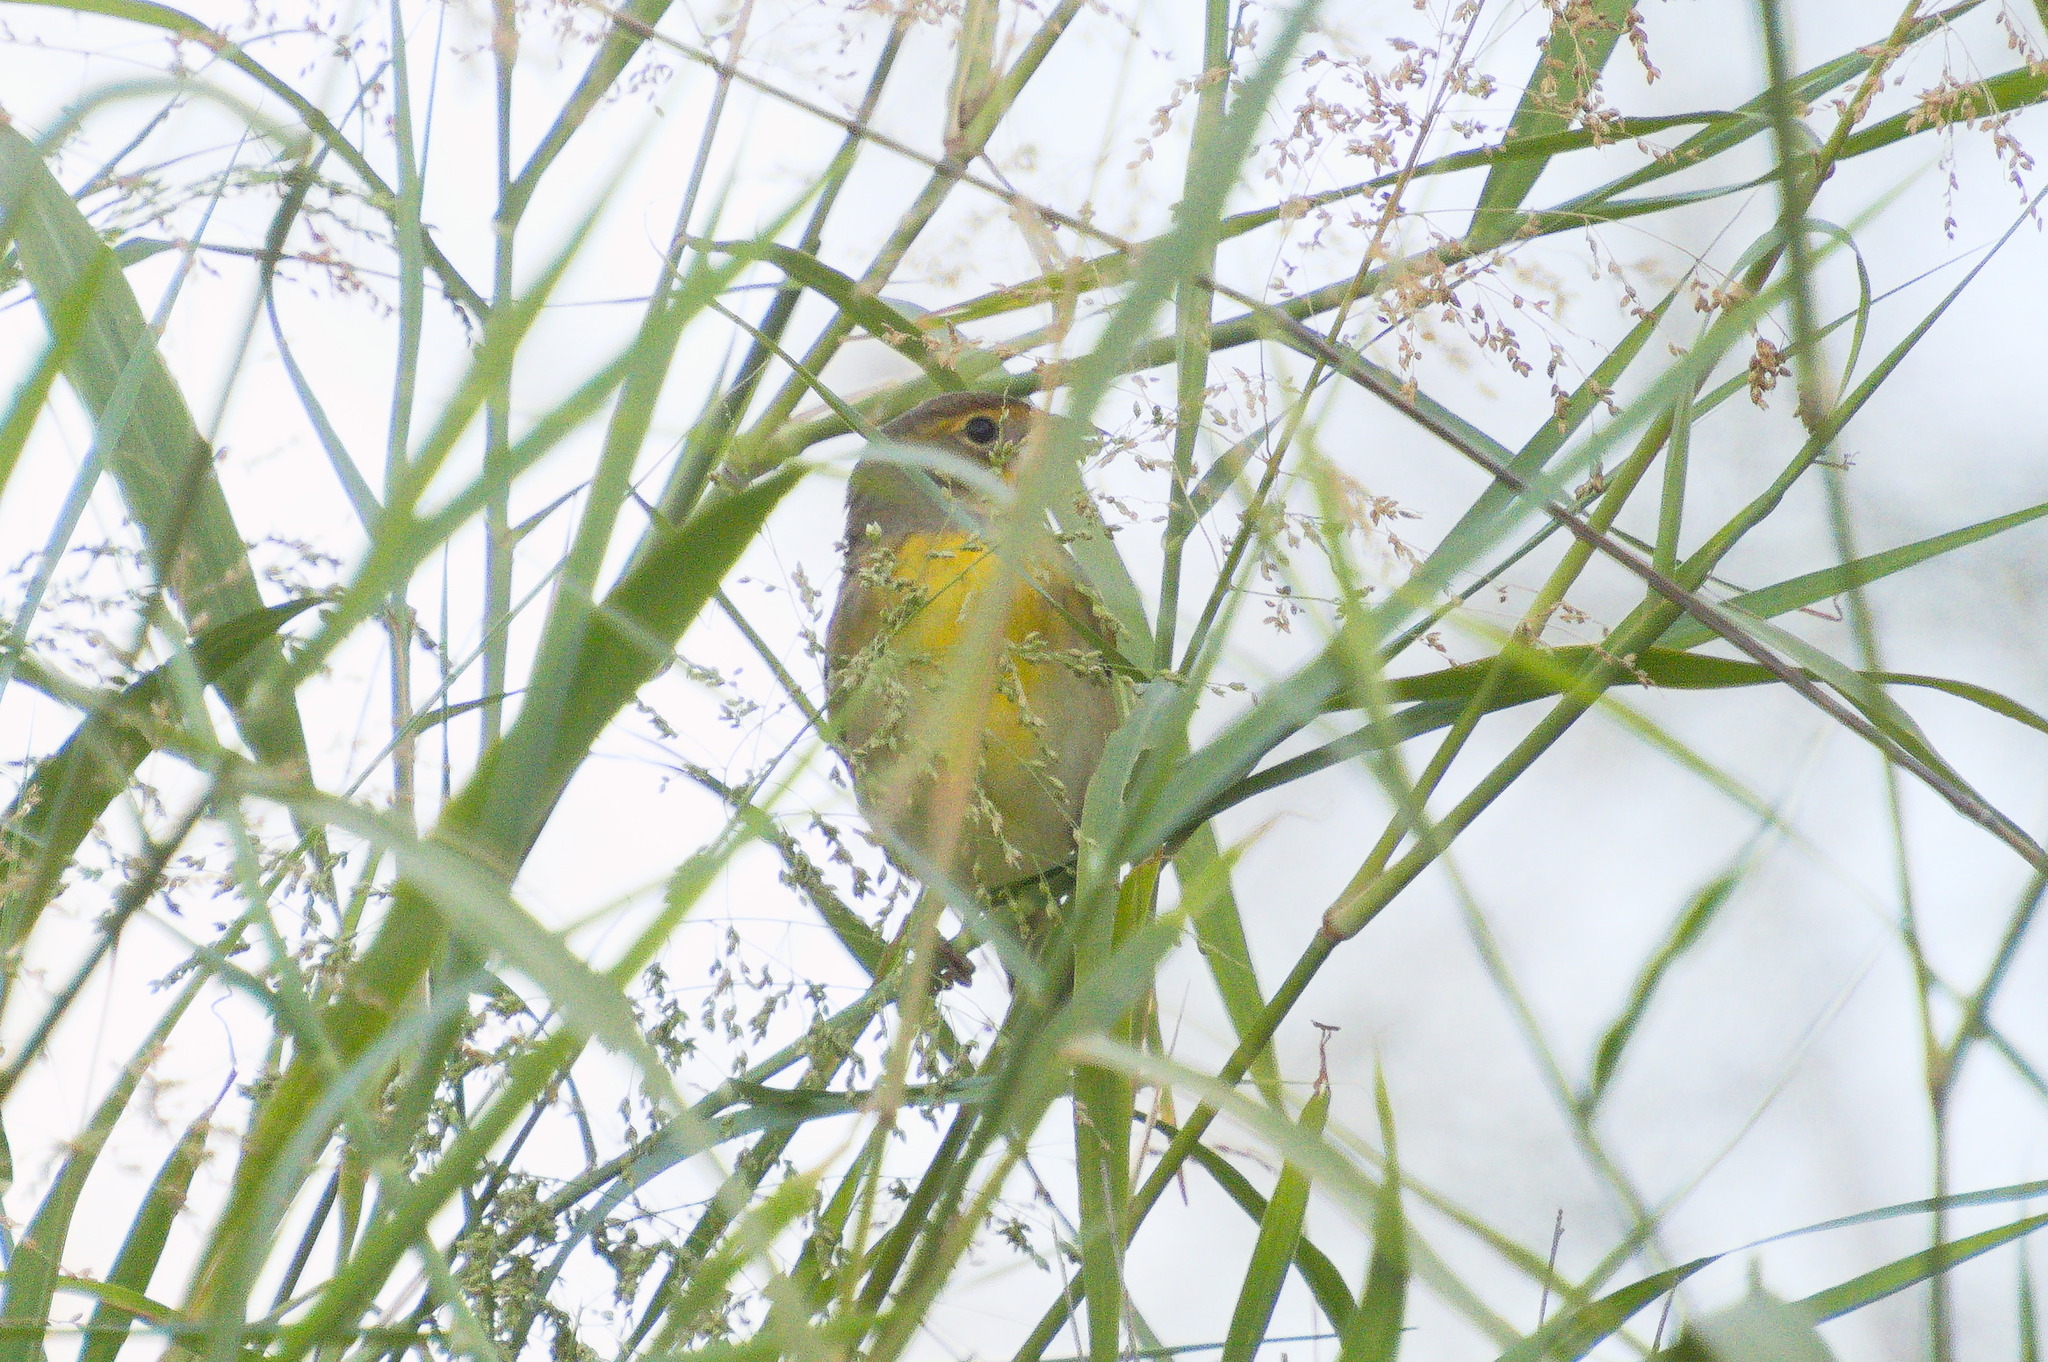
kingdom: Animalia
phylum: Chordata
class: Aves
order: Passeriformes
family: Cardinalidae
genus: Spiza
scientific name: Spiza americana
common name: Dickcissel
